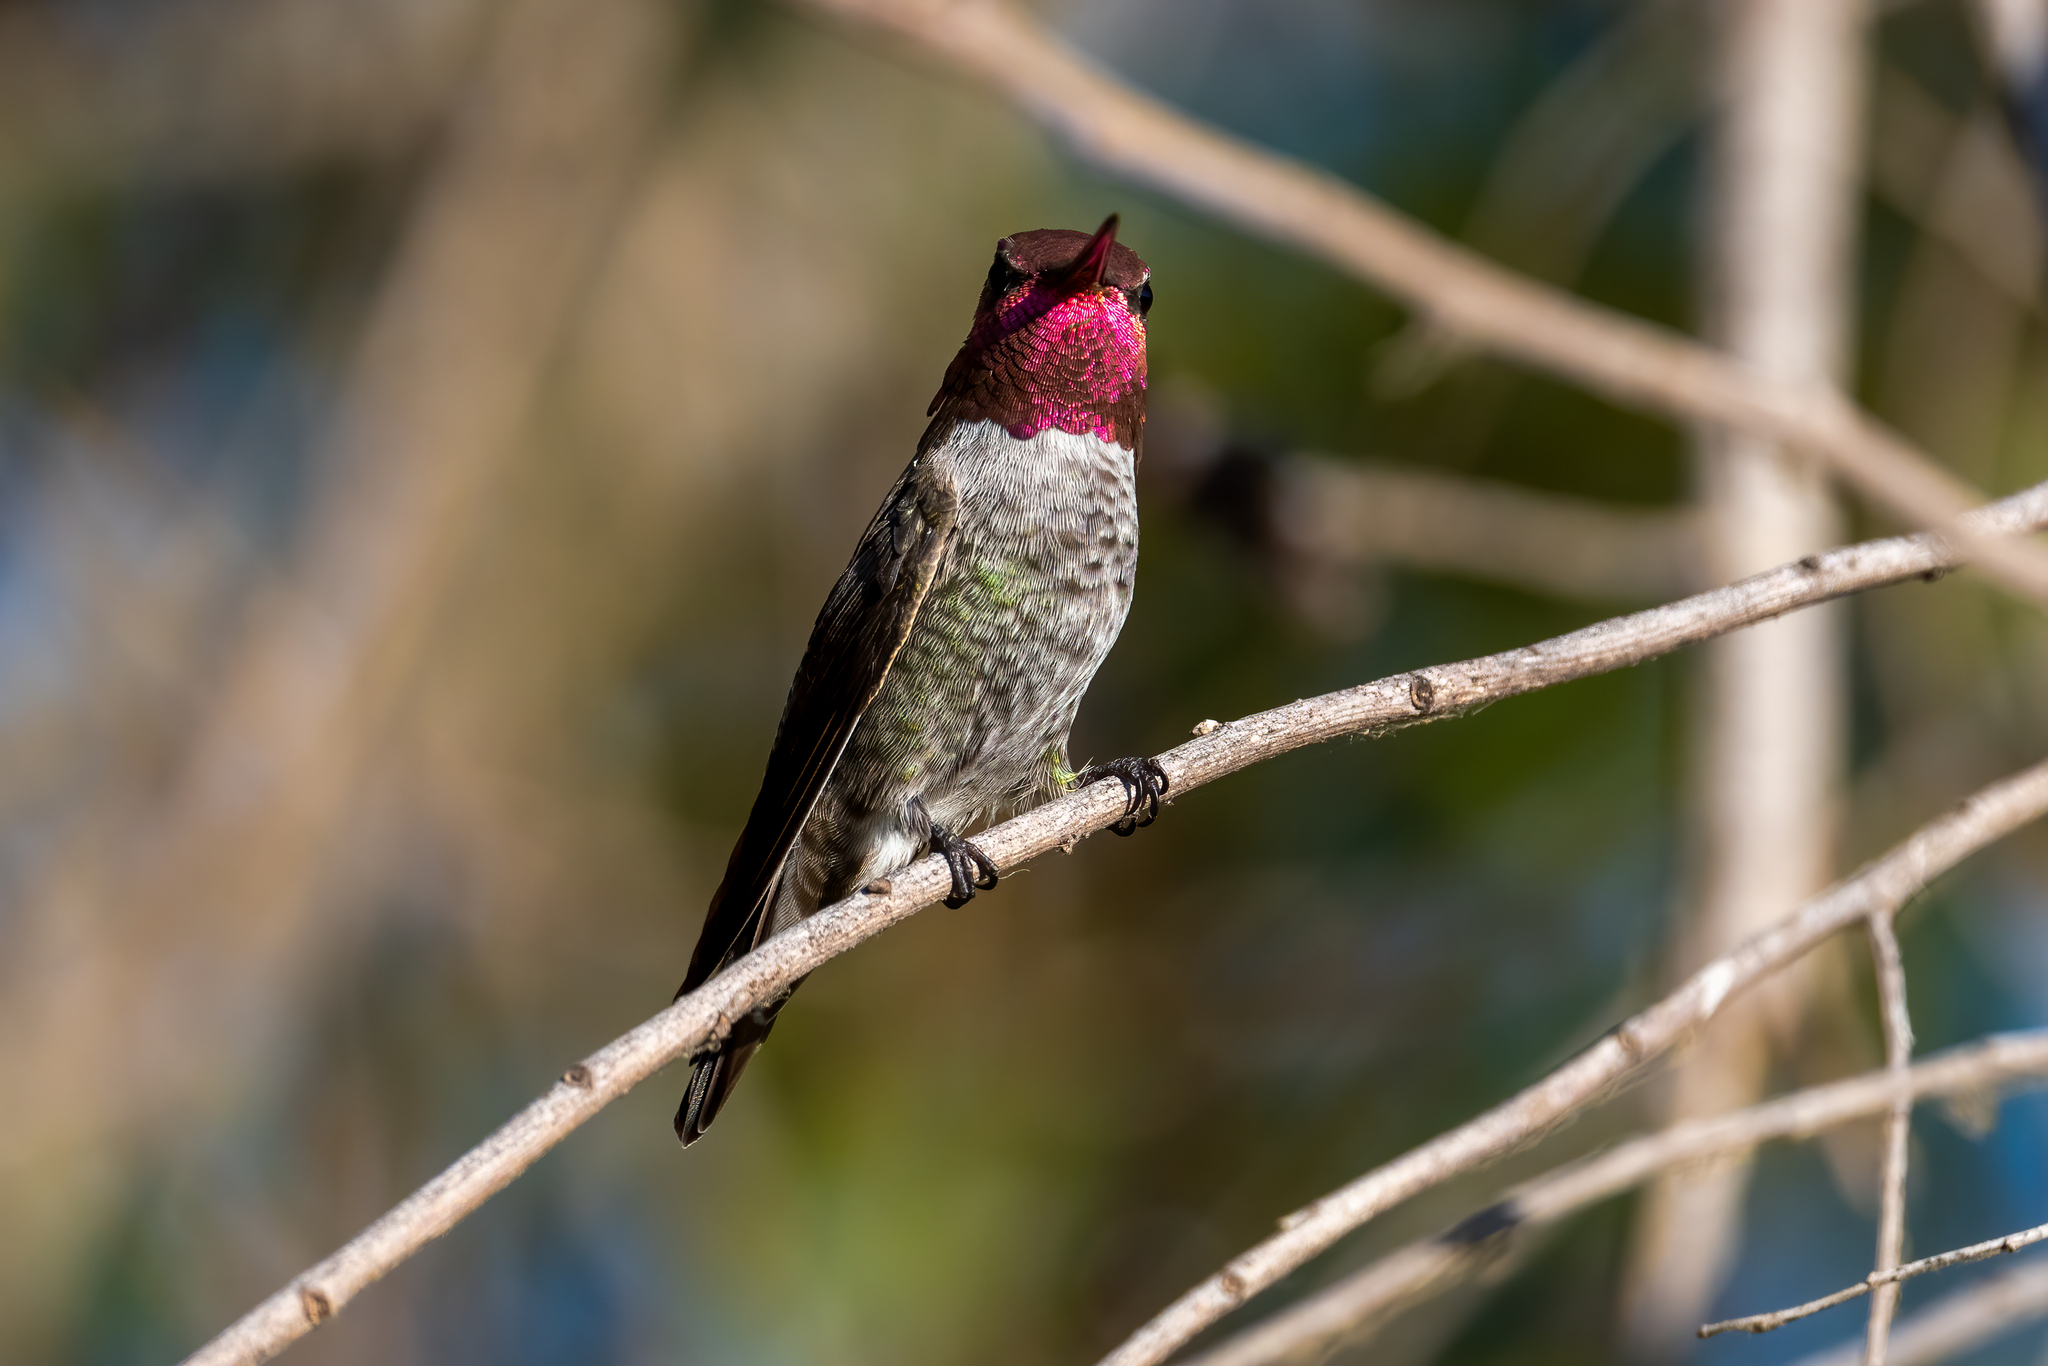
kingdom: Animalia
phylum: Chordata
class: Aves
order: Apodiformes
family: Trochilidae
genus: Calypte
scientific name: Calypte anna
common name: Anna's hummingbird
